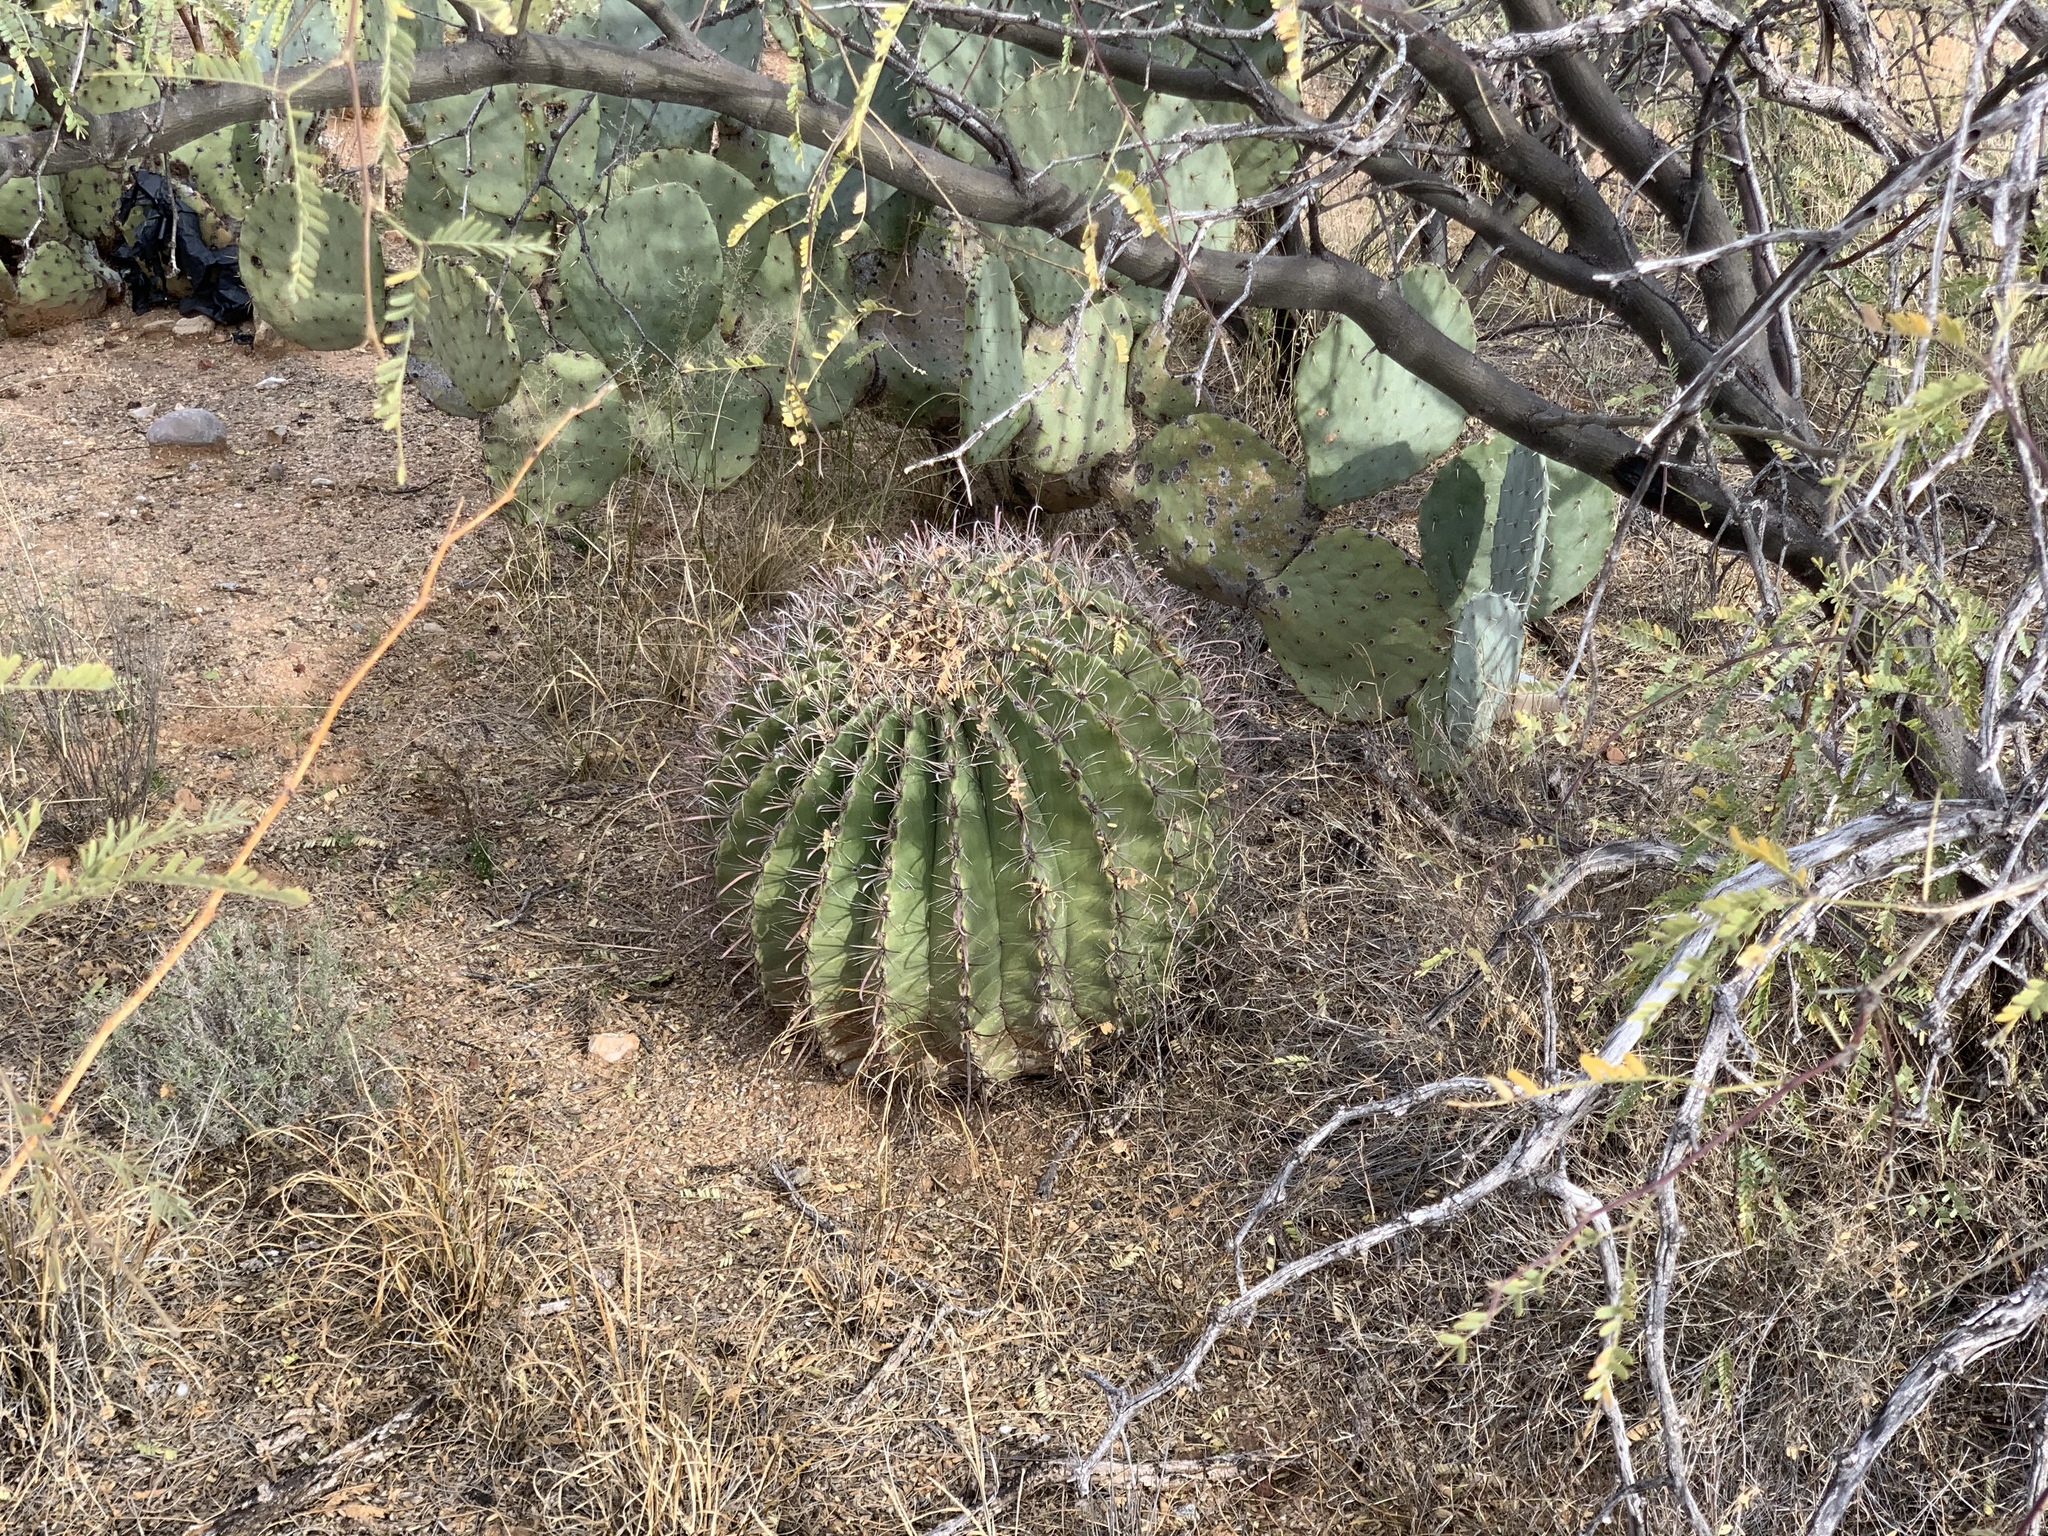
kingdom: Plantae
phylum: Tracheophyta
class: Magnoliopsida
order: Caryophyllales
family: Cactaceae
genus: Ferocactus
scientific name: Ferocactus wislizeni
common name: Candy barrel cactus
